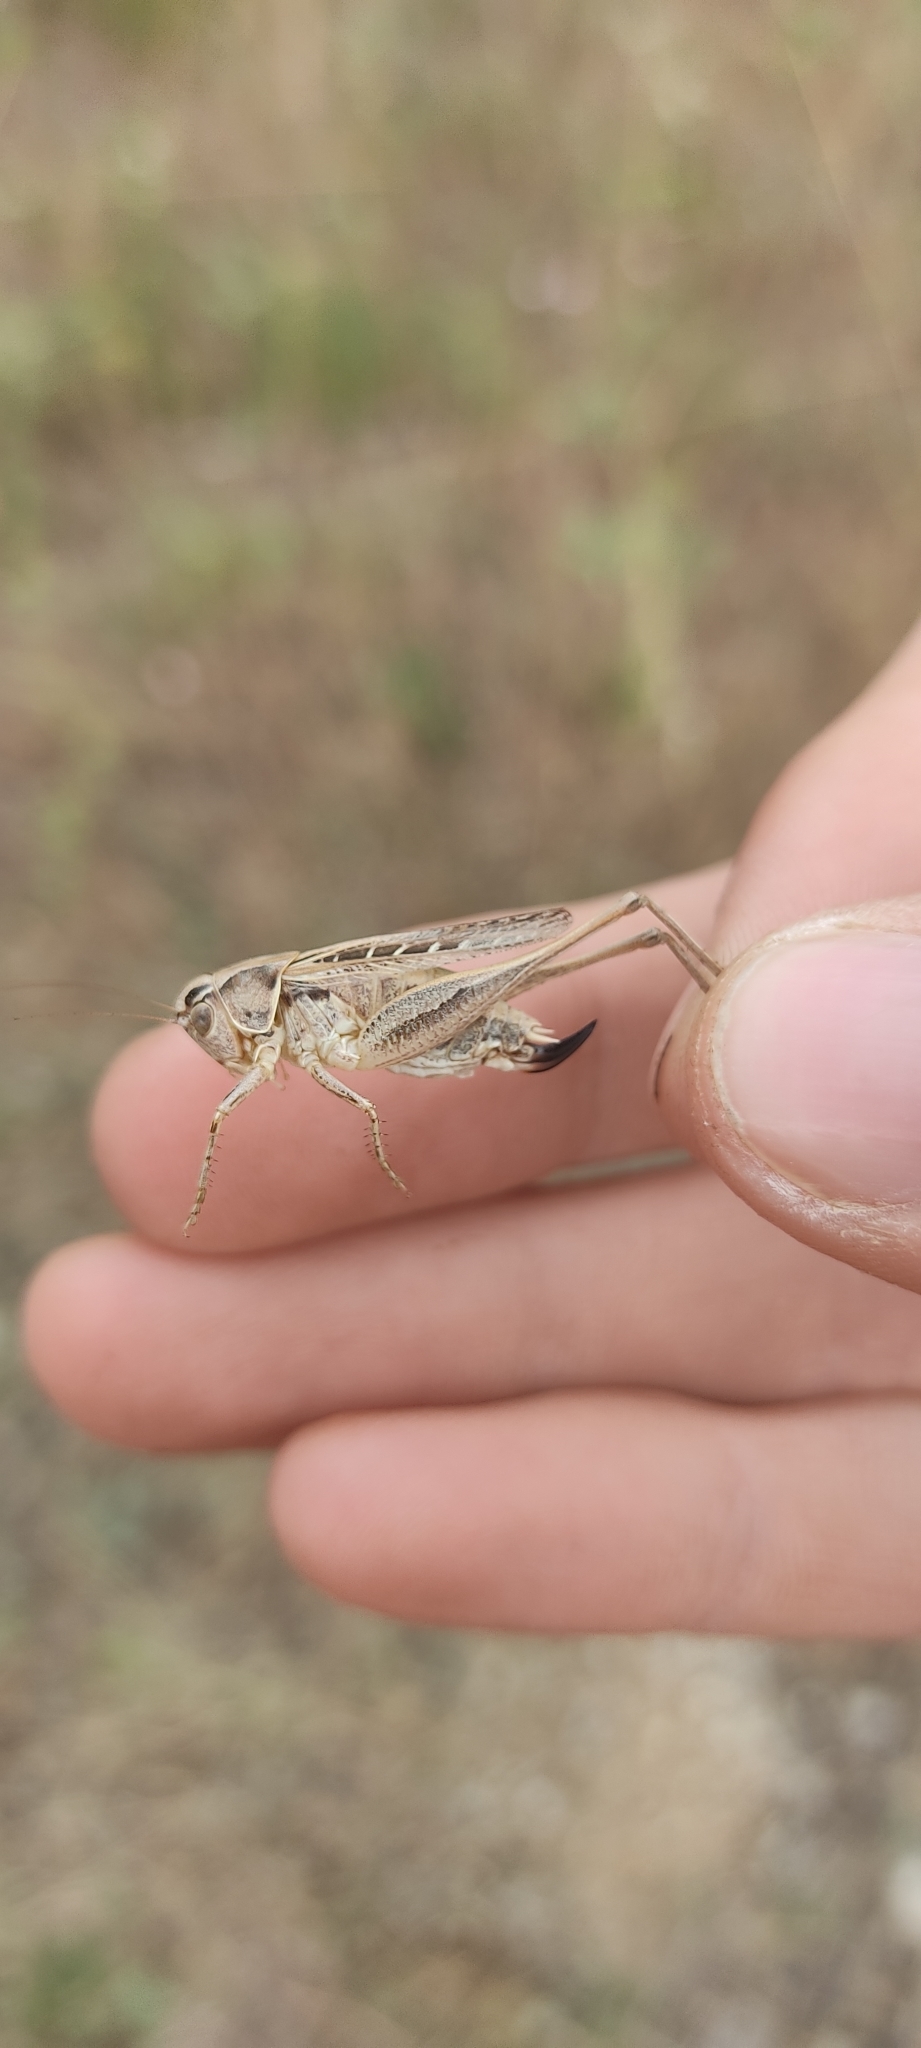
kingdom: Animalia
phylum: Arthropoda
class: Insecta
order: Orthoptera
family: Tettigoniidae
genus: Tessellana
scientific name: Tessellana tessellata
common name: Grasshopper
